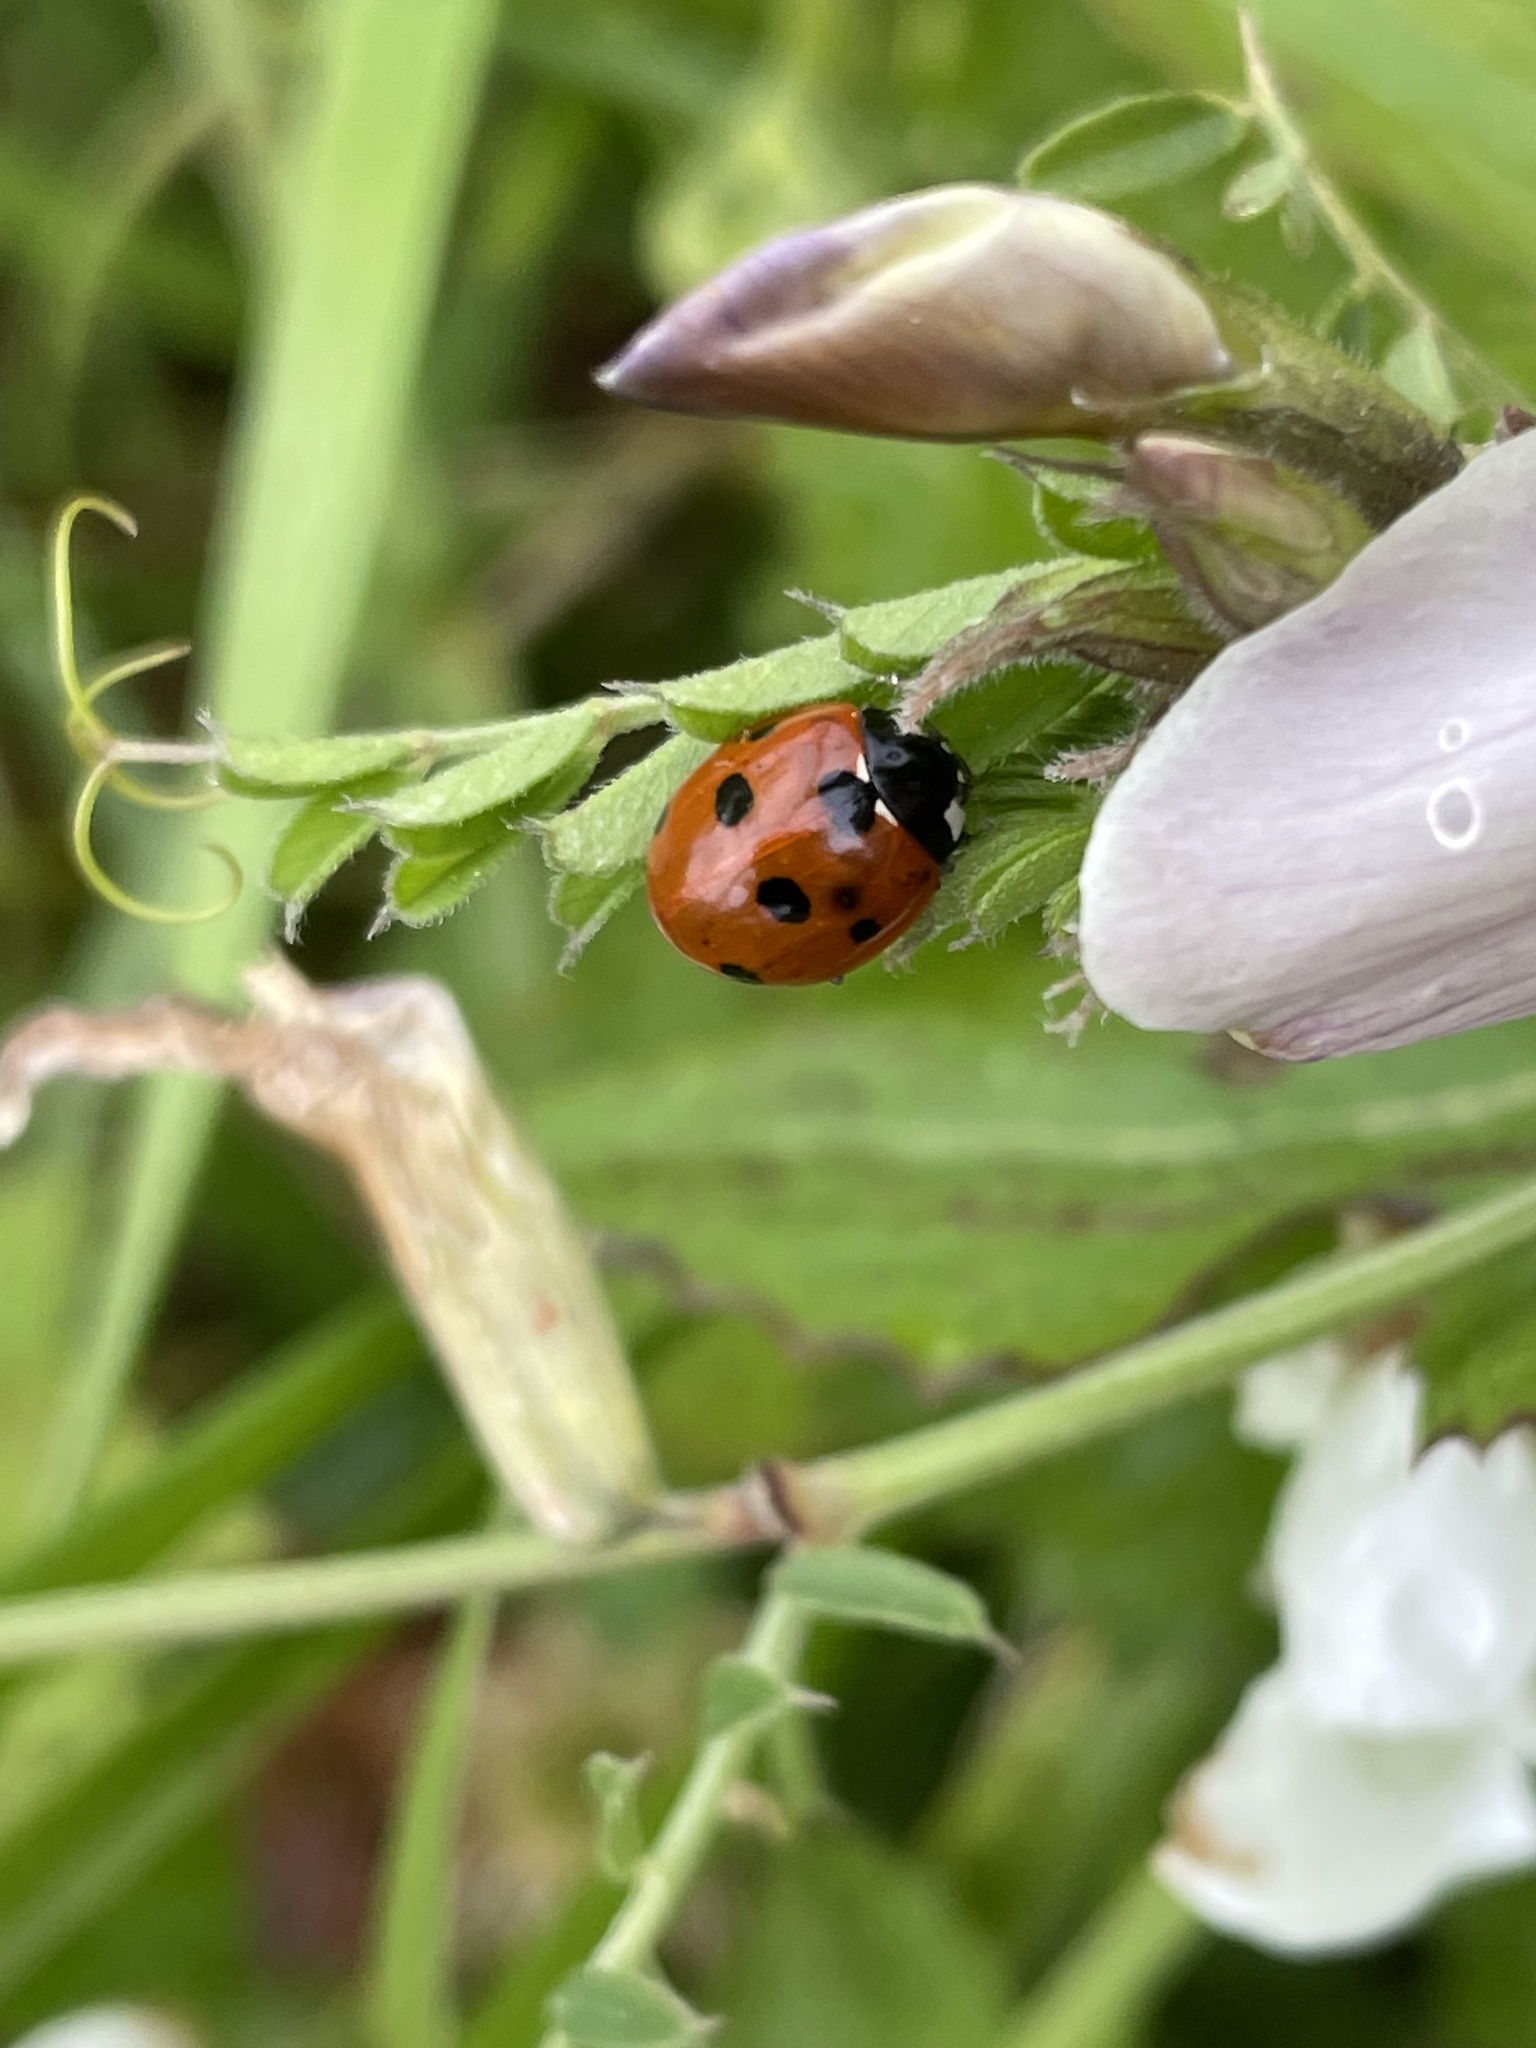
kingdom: Animalia
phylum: Arthropoda
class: Insecta
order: Coleoptera
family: Coccinellidae
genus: Coccinella
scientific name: Coccinella septempunctata
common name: Sevenspotted lady beetle
